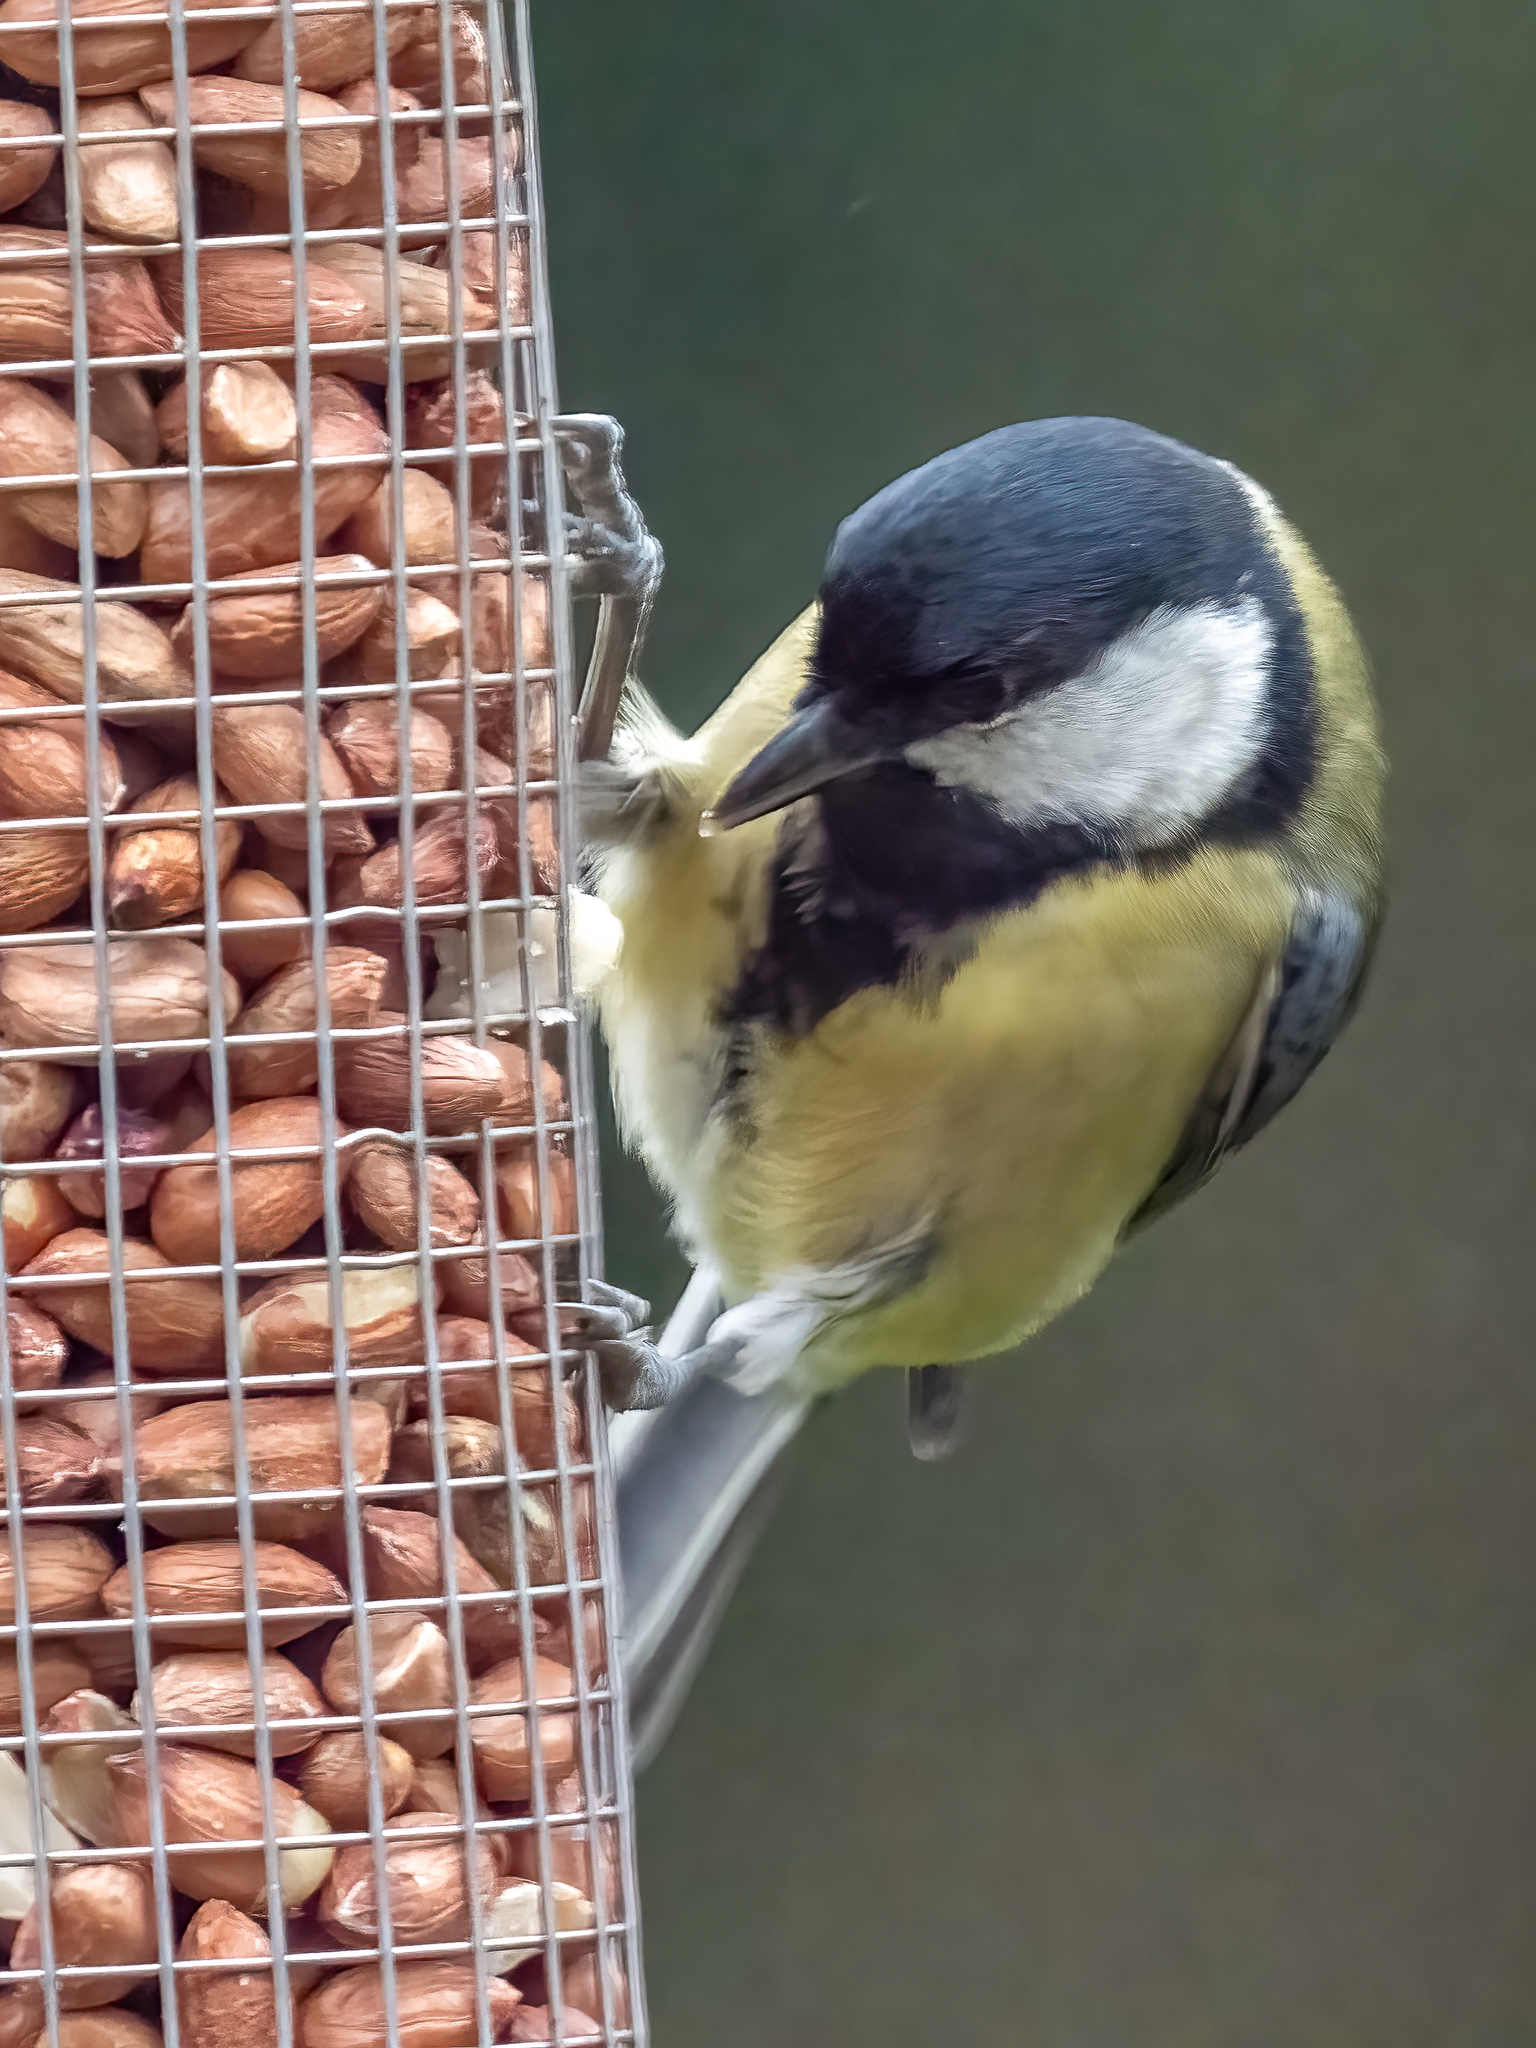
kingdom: Animalia
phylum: Chordata
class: Aves
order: Passeriformes
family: Paridae
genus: Parus
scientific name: Parus major
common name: Great tit
